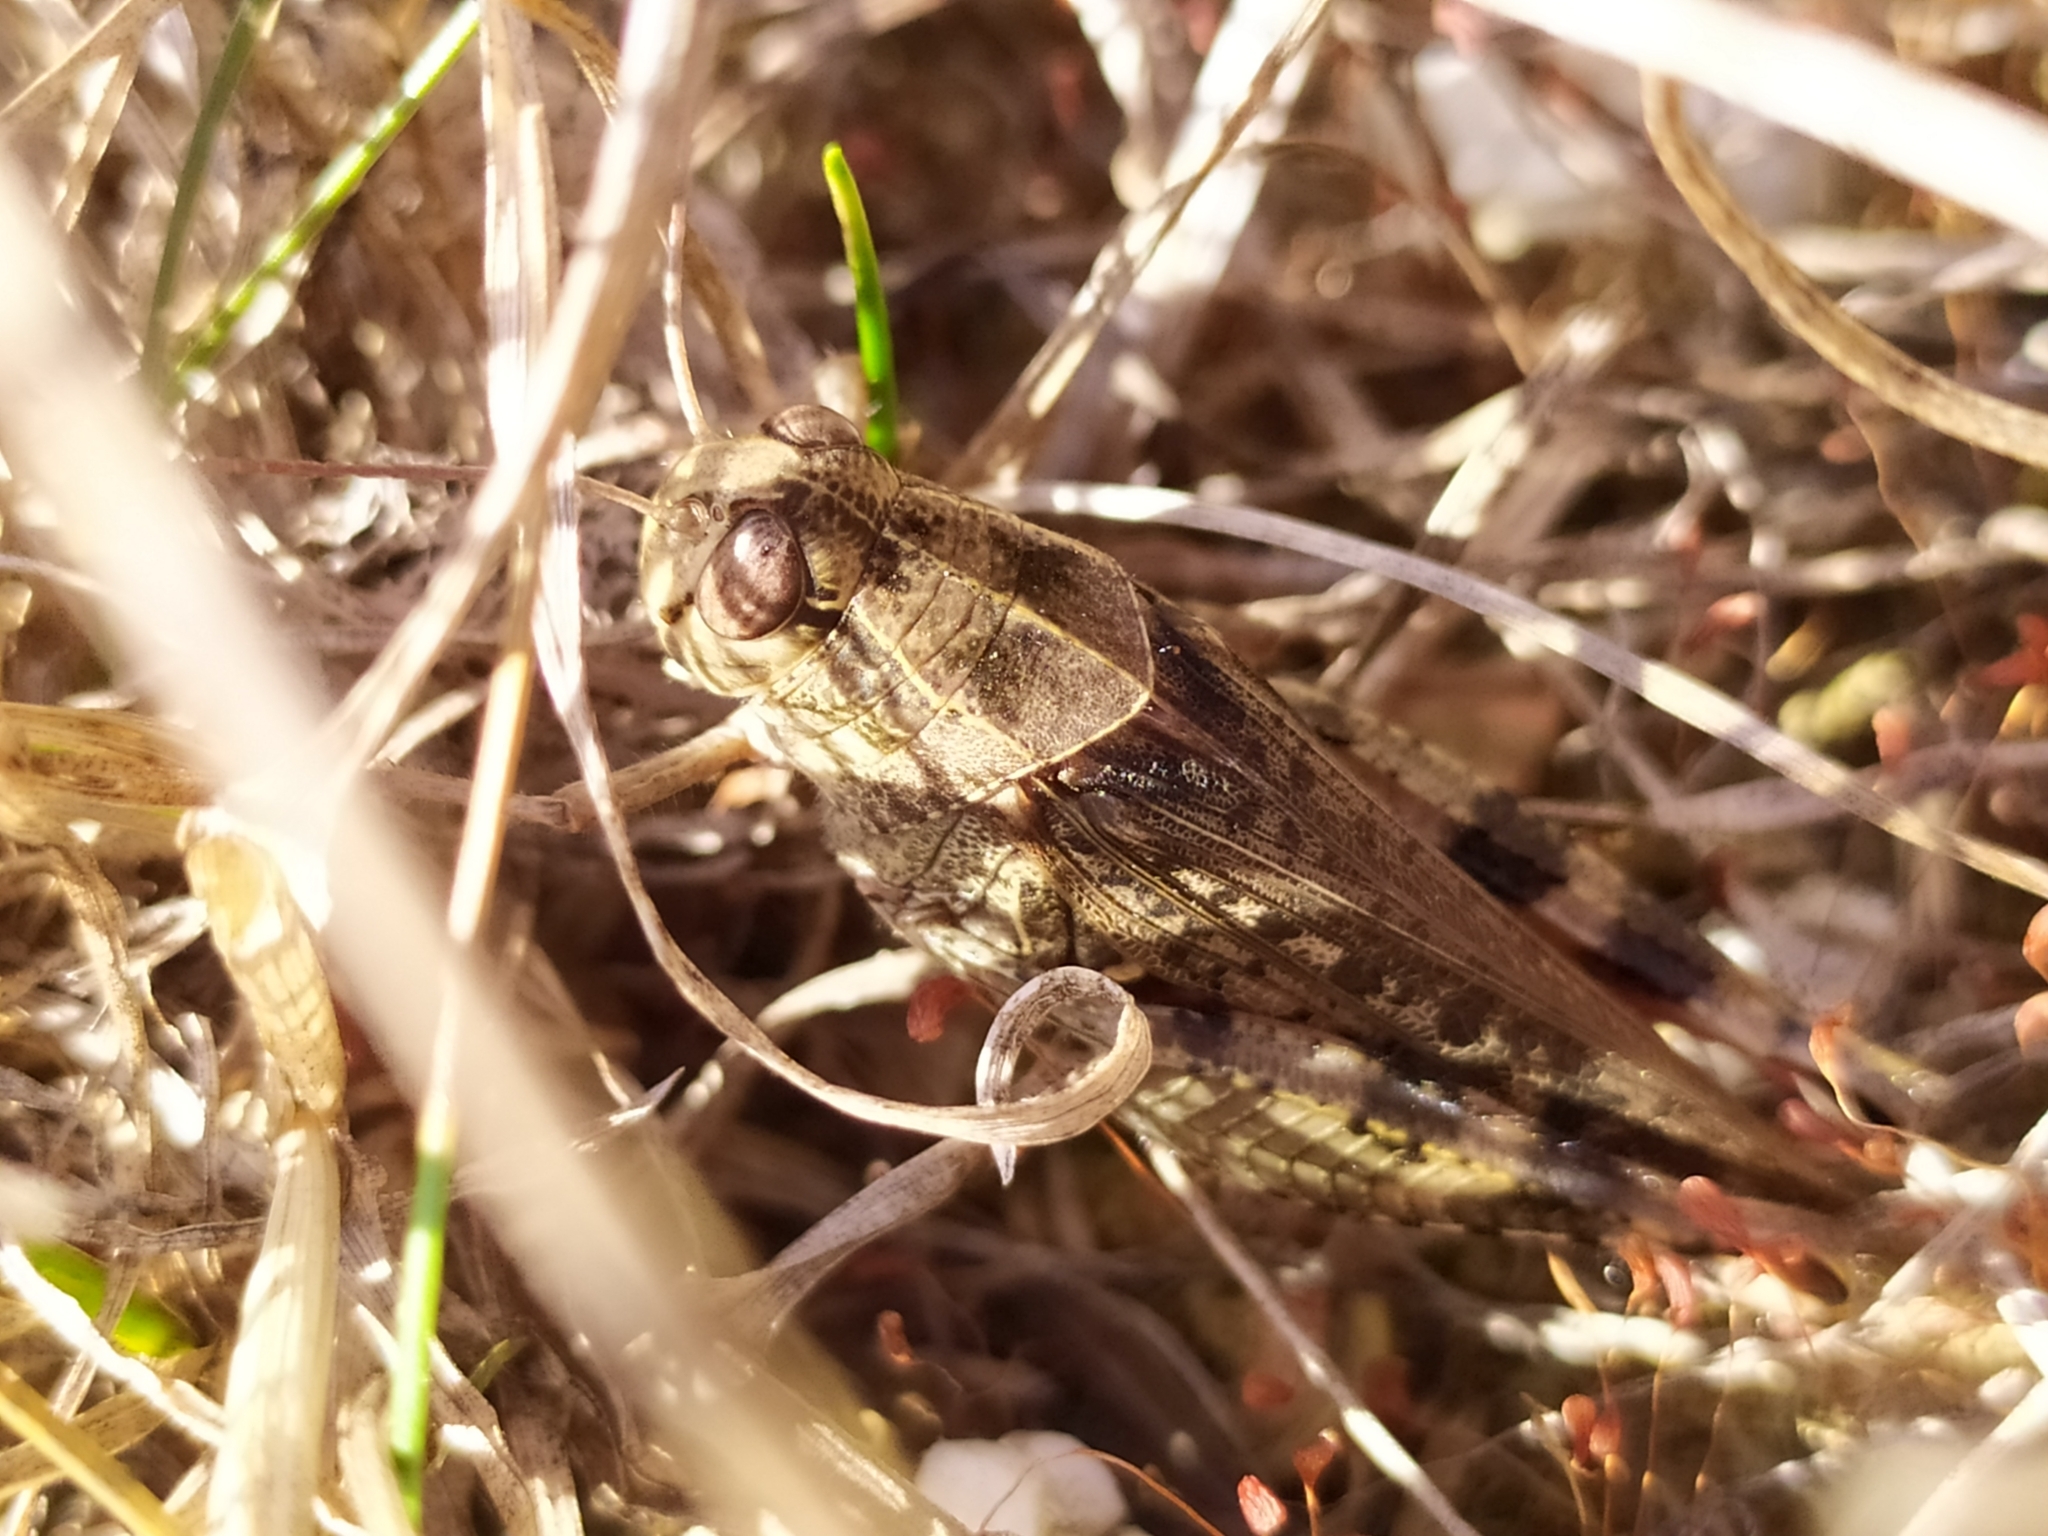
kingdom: Animalia
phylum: Arthropoda
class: Insecta
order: Orthoptera
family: Acrididae
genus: Calliptamus
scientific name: Calliptamus italicus
